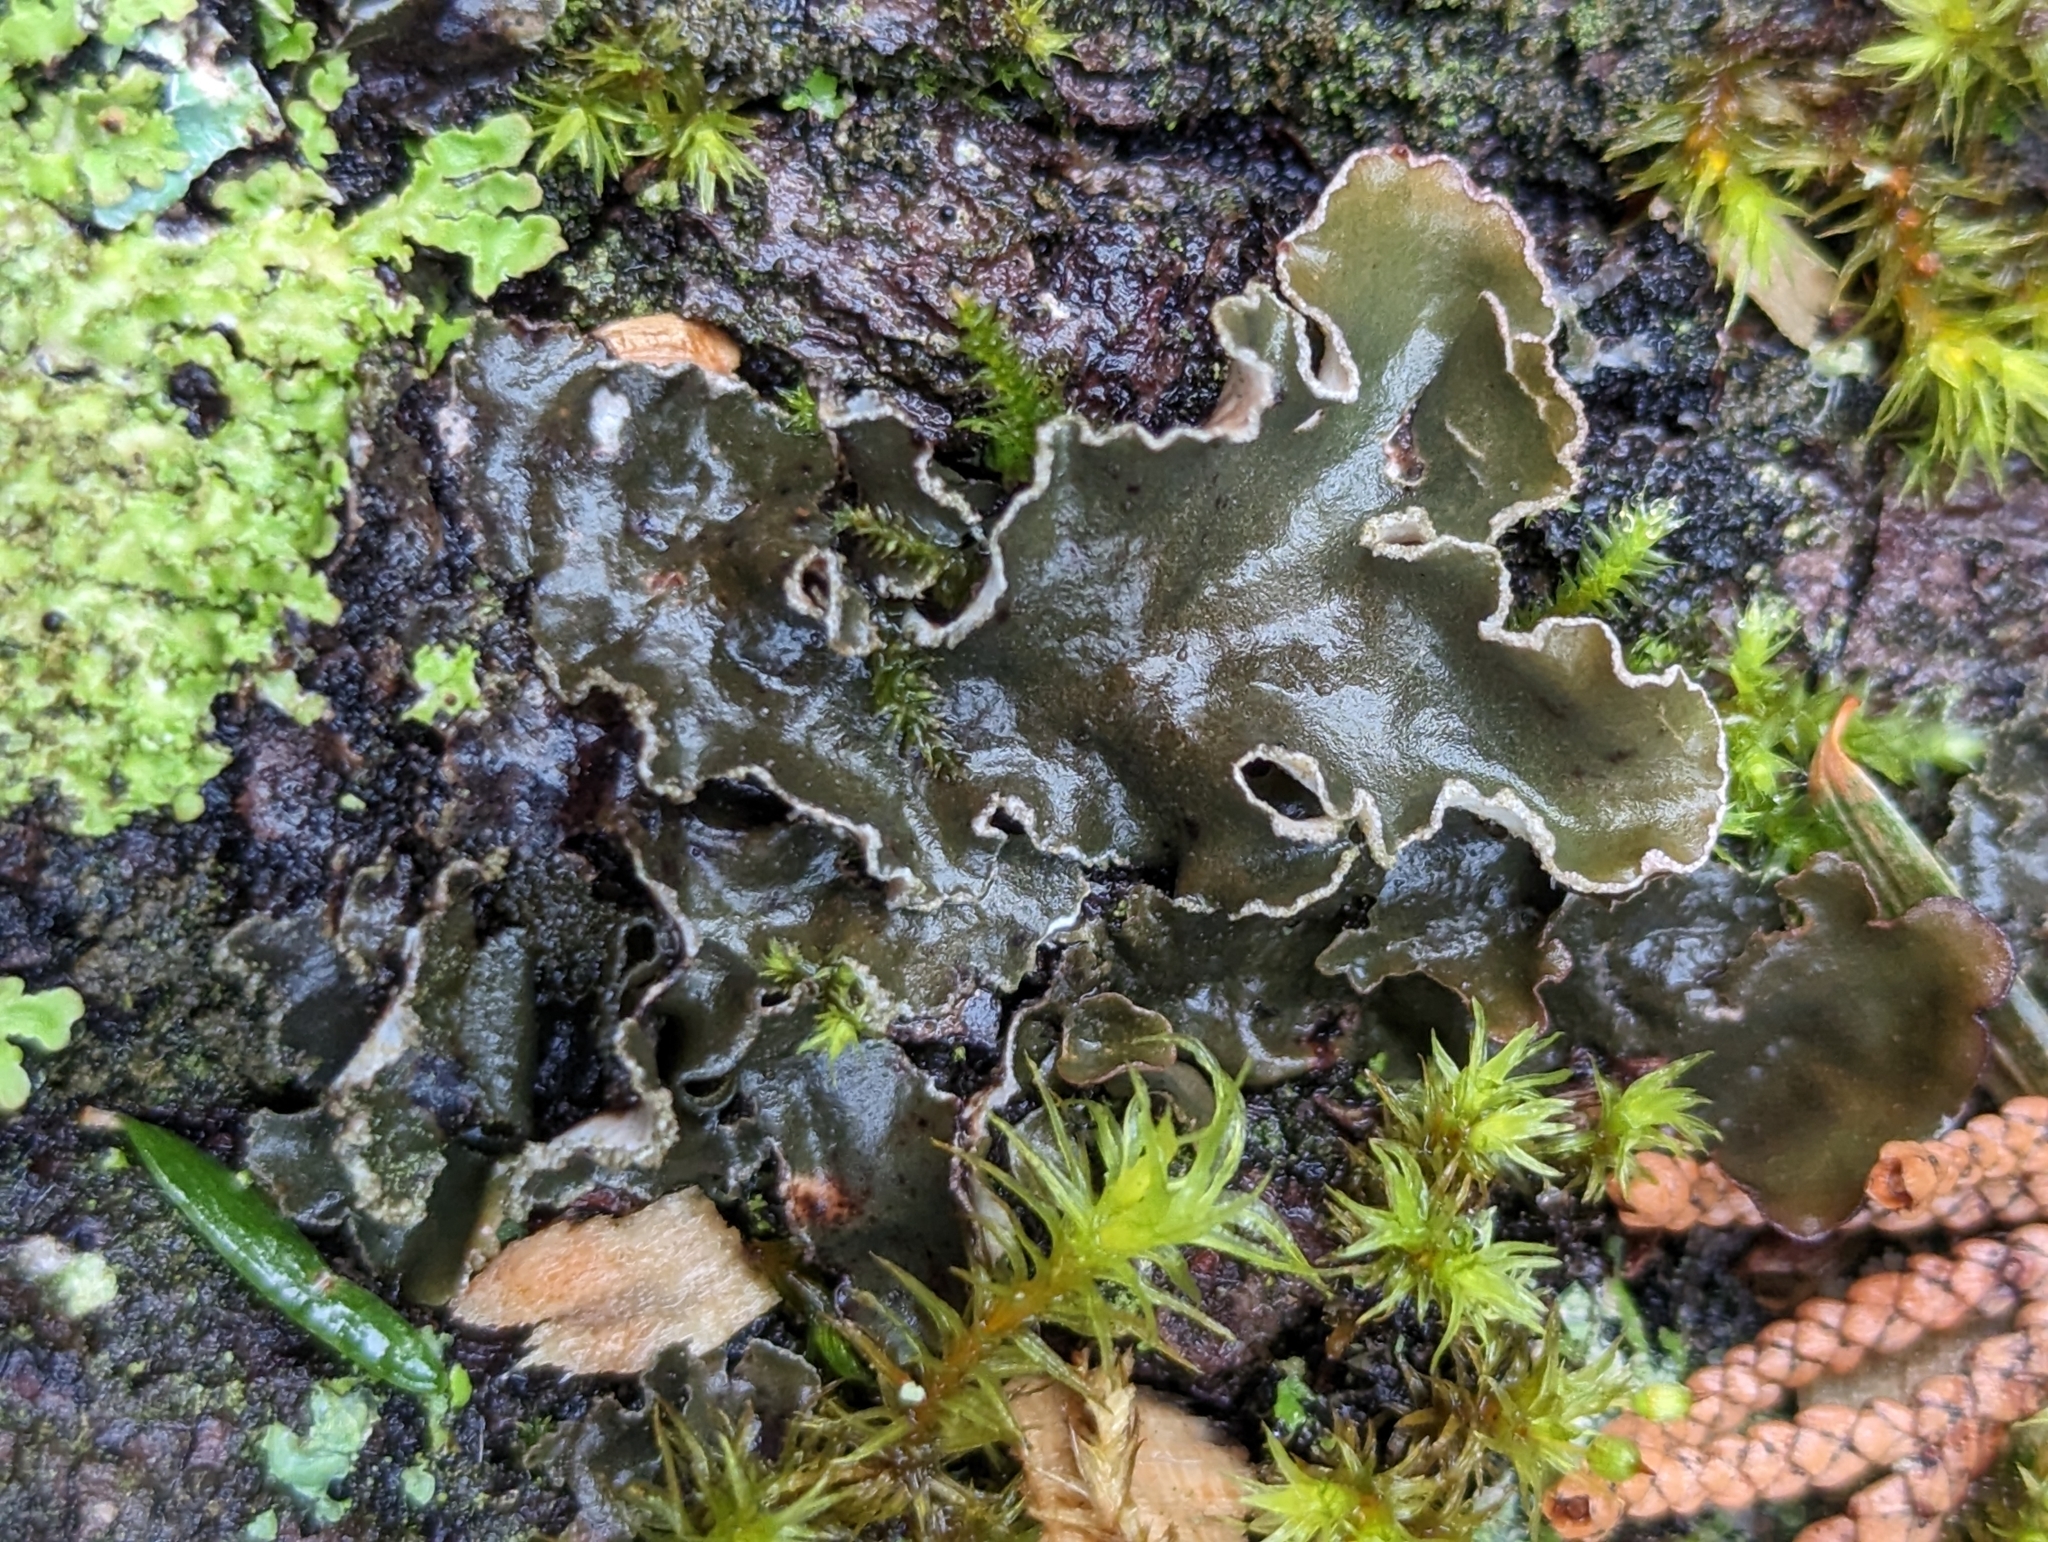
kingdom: Fungi
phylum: Ascomycota
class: Lecanoromycetes
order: Peltigerales
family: Peltigeraceae
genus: Peltigera
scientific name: Peltigera collina
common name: Gritty tree pelt lichen
